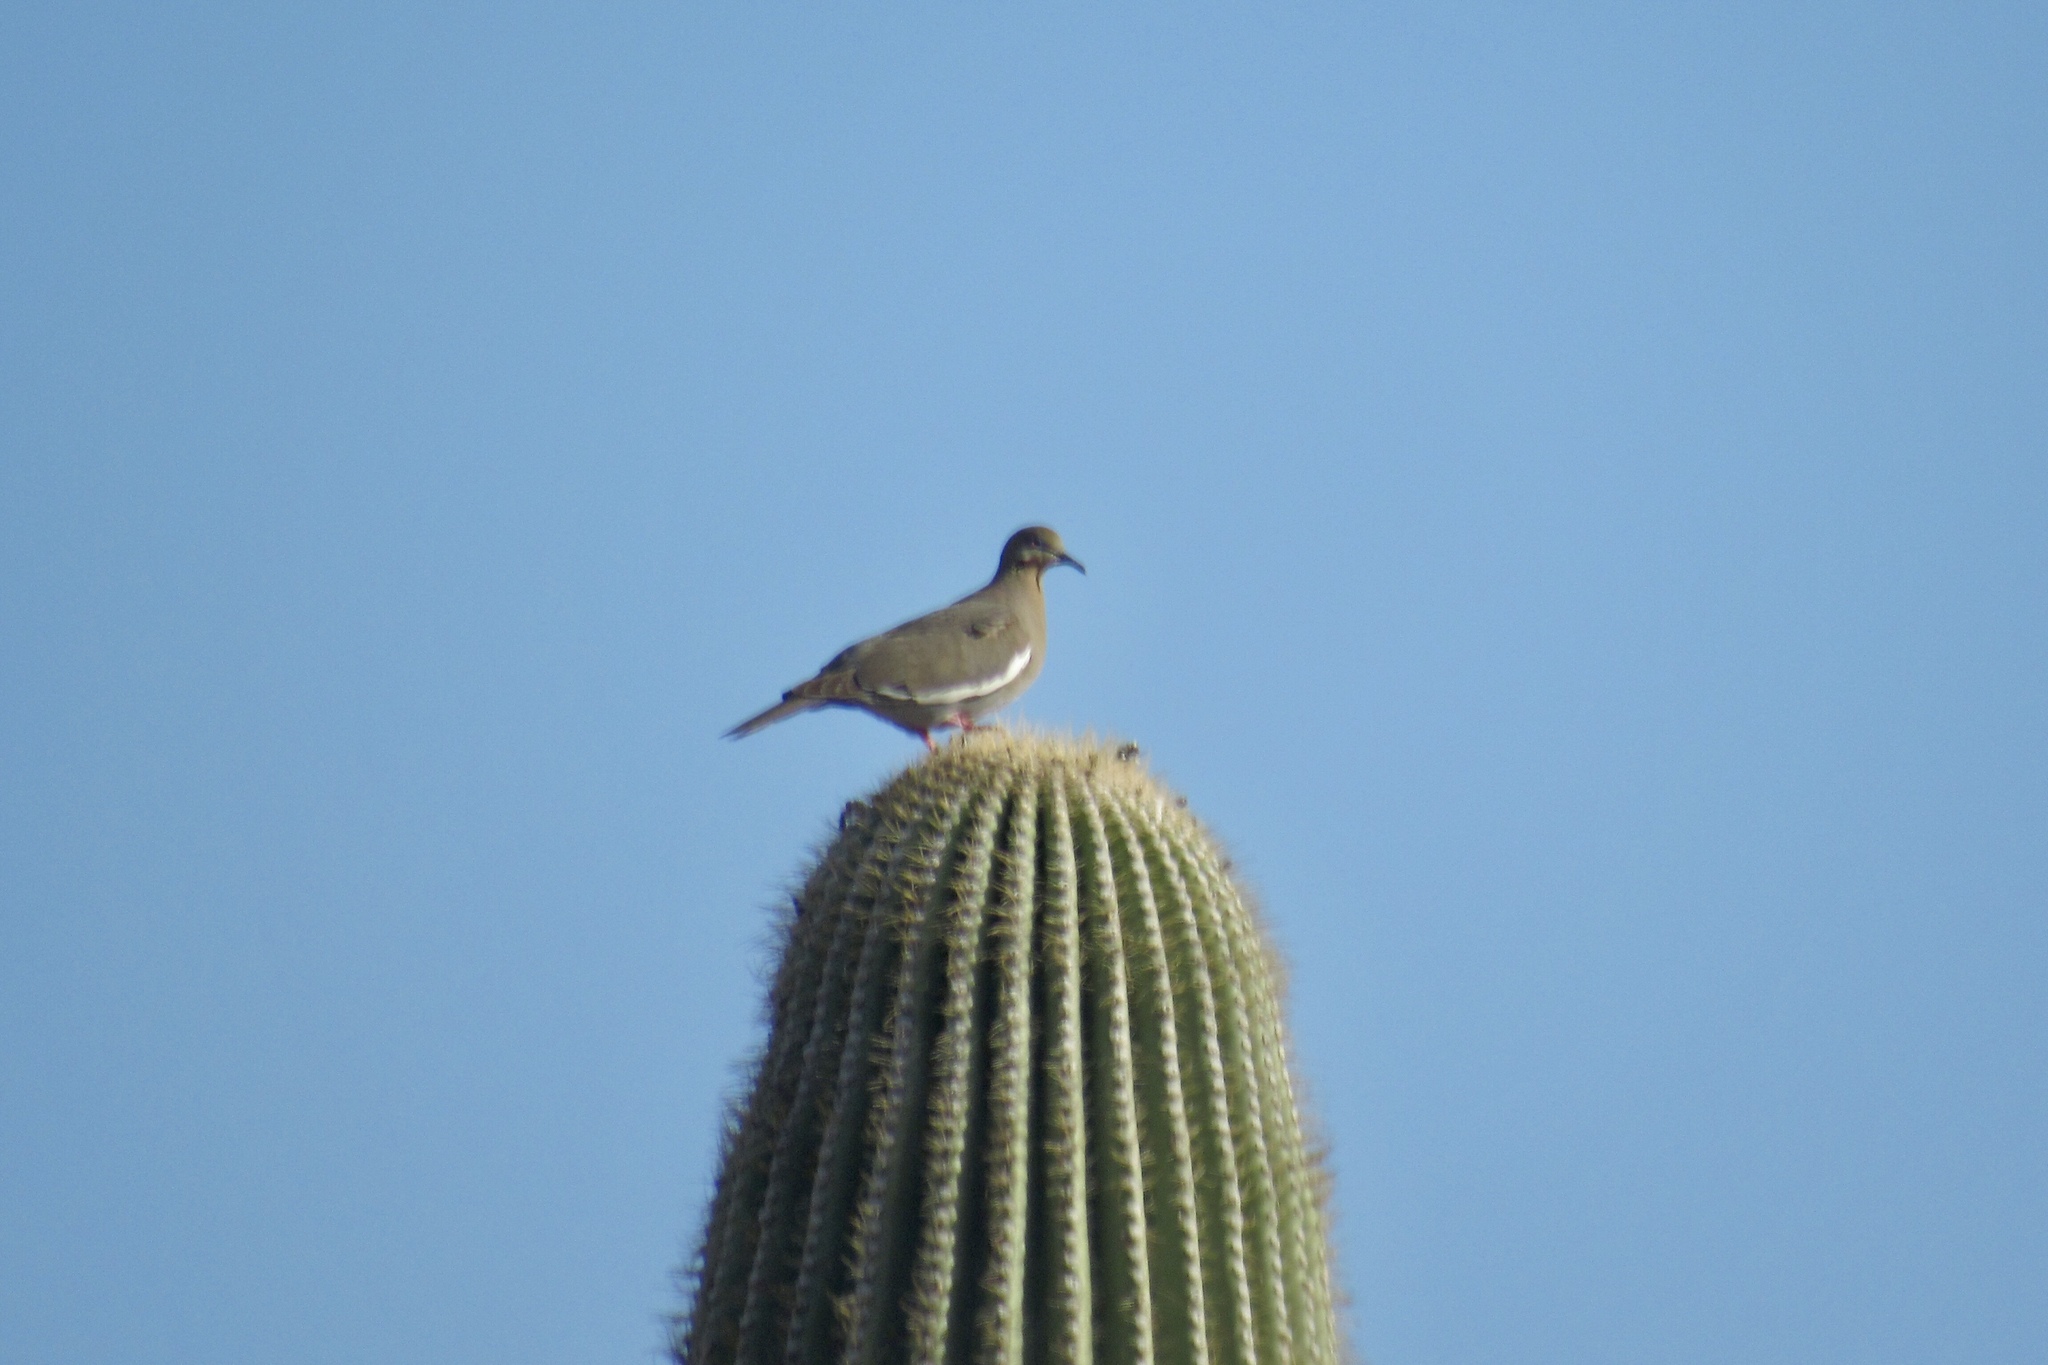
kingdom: Animalia
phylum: Chordata
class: Aves
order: Columbiformes
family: Columbidae
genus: Zenaida
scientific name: Zenaida asiatica
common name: White-winged dove
